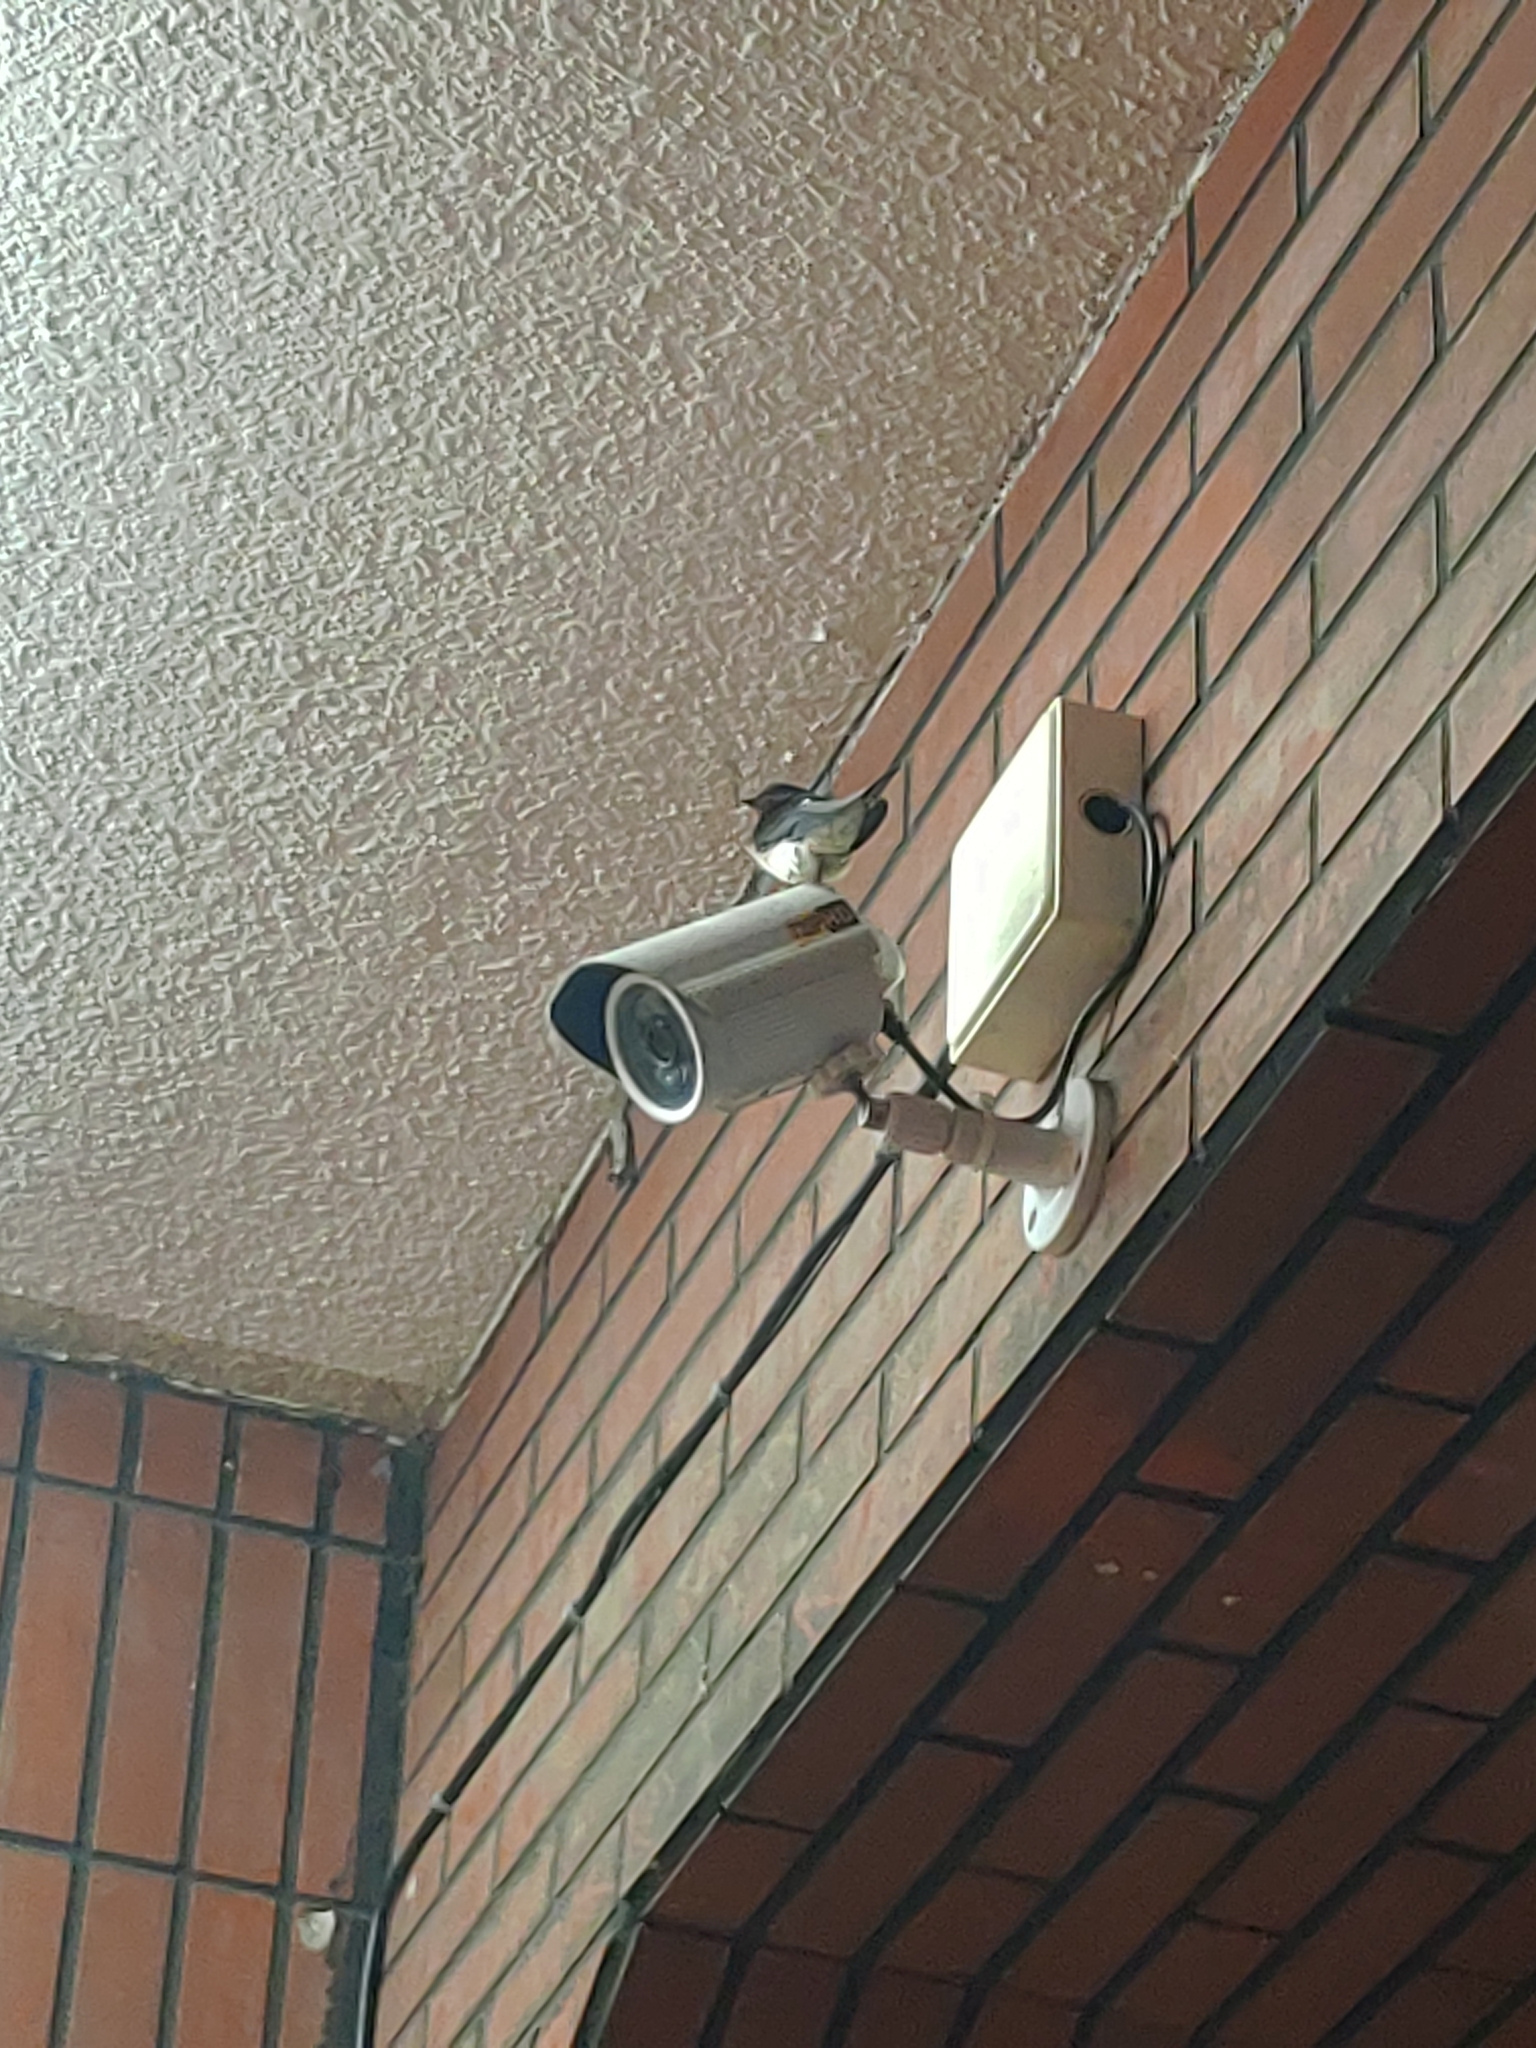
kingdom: Animalia
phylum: Chordata
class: Aves
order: Passeriformes
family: Hirundinidae
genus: Hirundo
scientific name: Hirundo rustica
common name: Barn swallow
